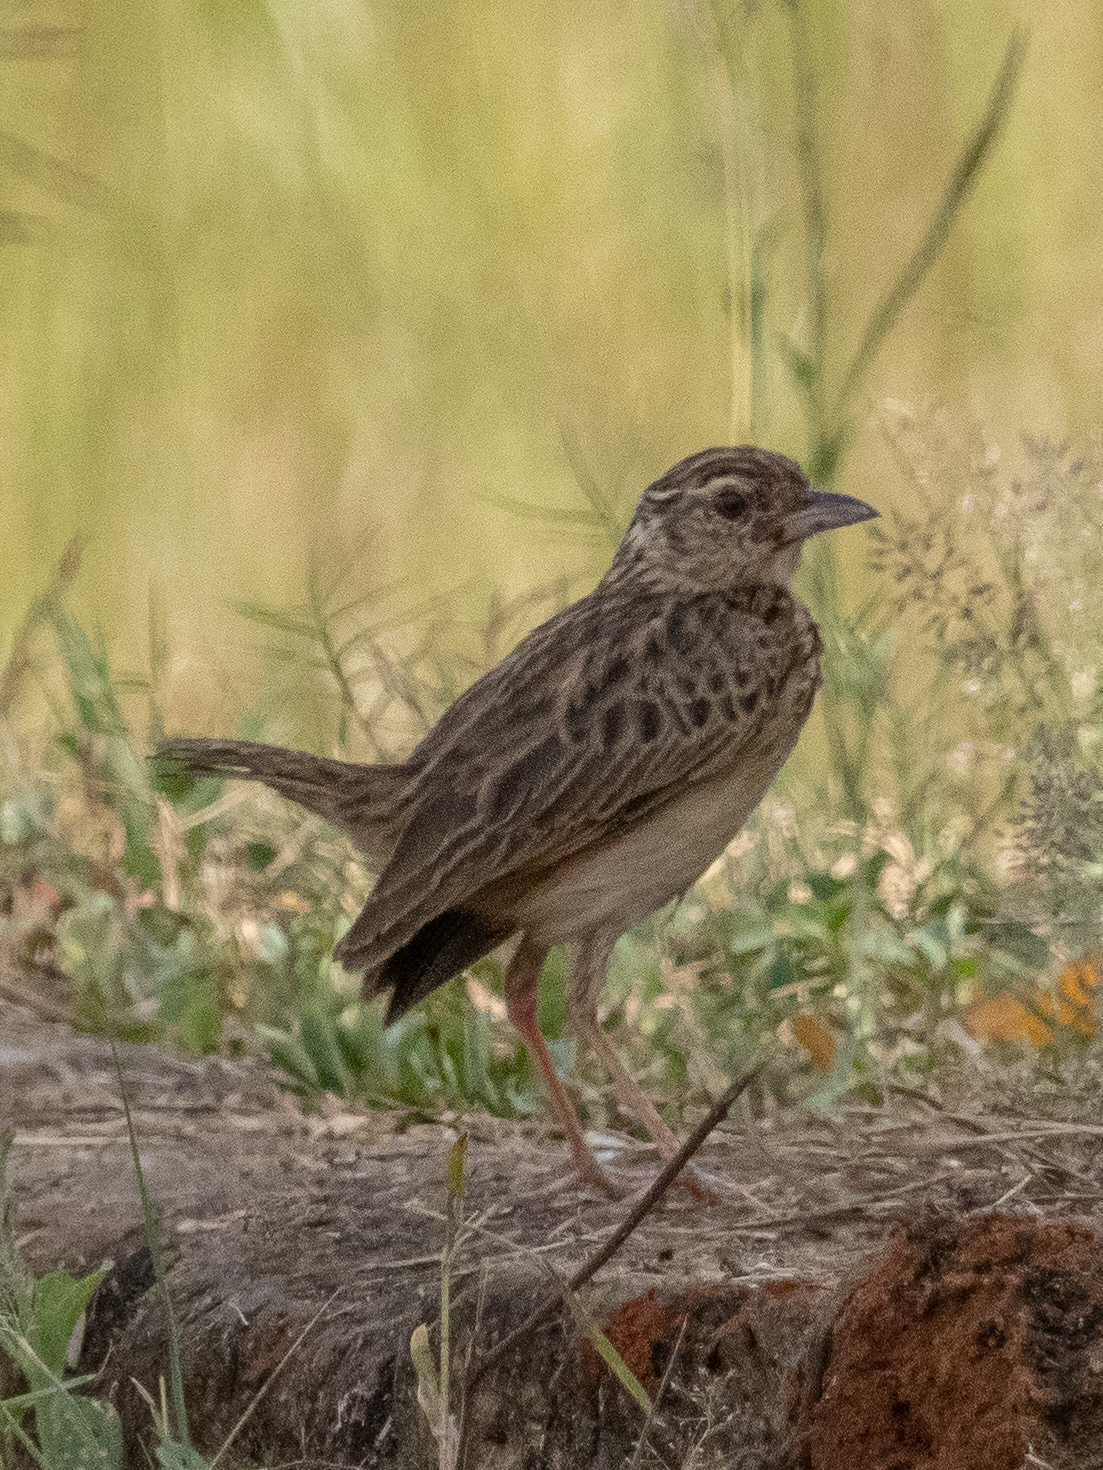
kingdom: Animalia
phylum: Chordata
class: Aves
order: Passeriformes
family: Alaudidae
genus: Mirafra
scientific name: Mirafra affinis
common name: Jerdon's bushlark
